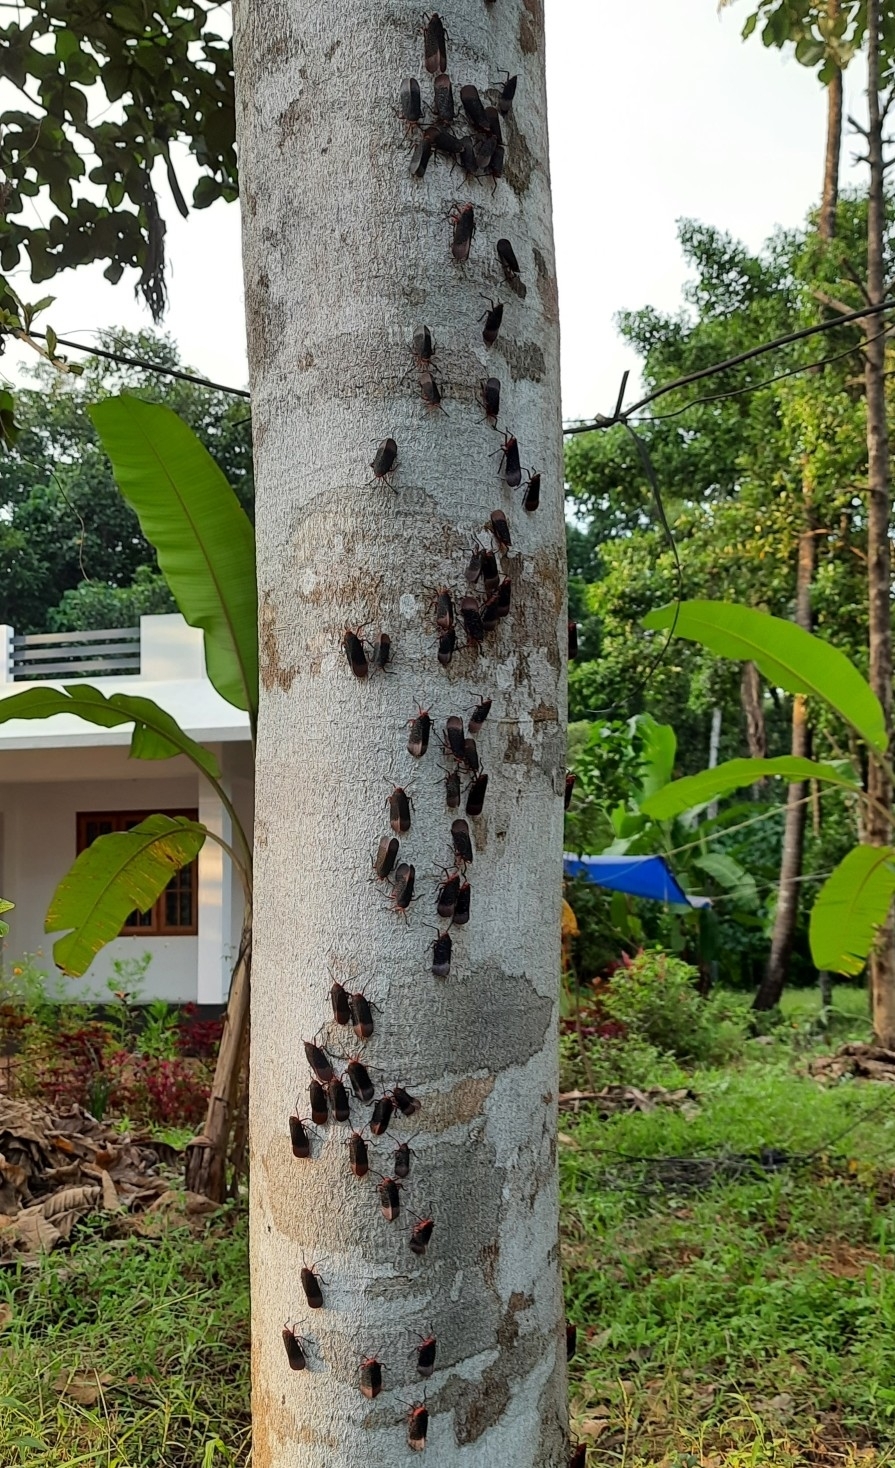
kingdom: Animalia
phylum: Arthropoda
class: Insecta
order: Hemiptera
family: Fulgoridae
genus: Kalidasa
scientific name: Kalidasa lanata
